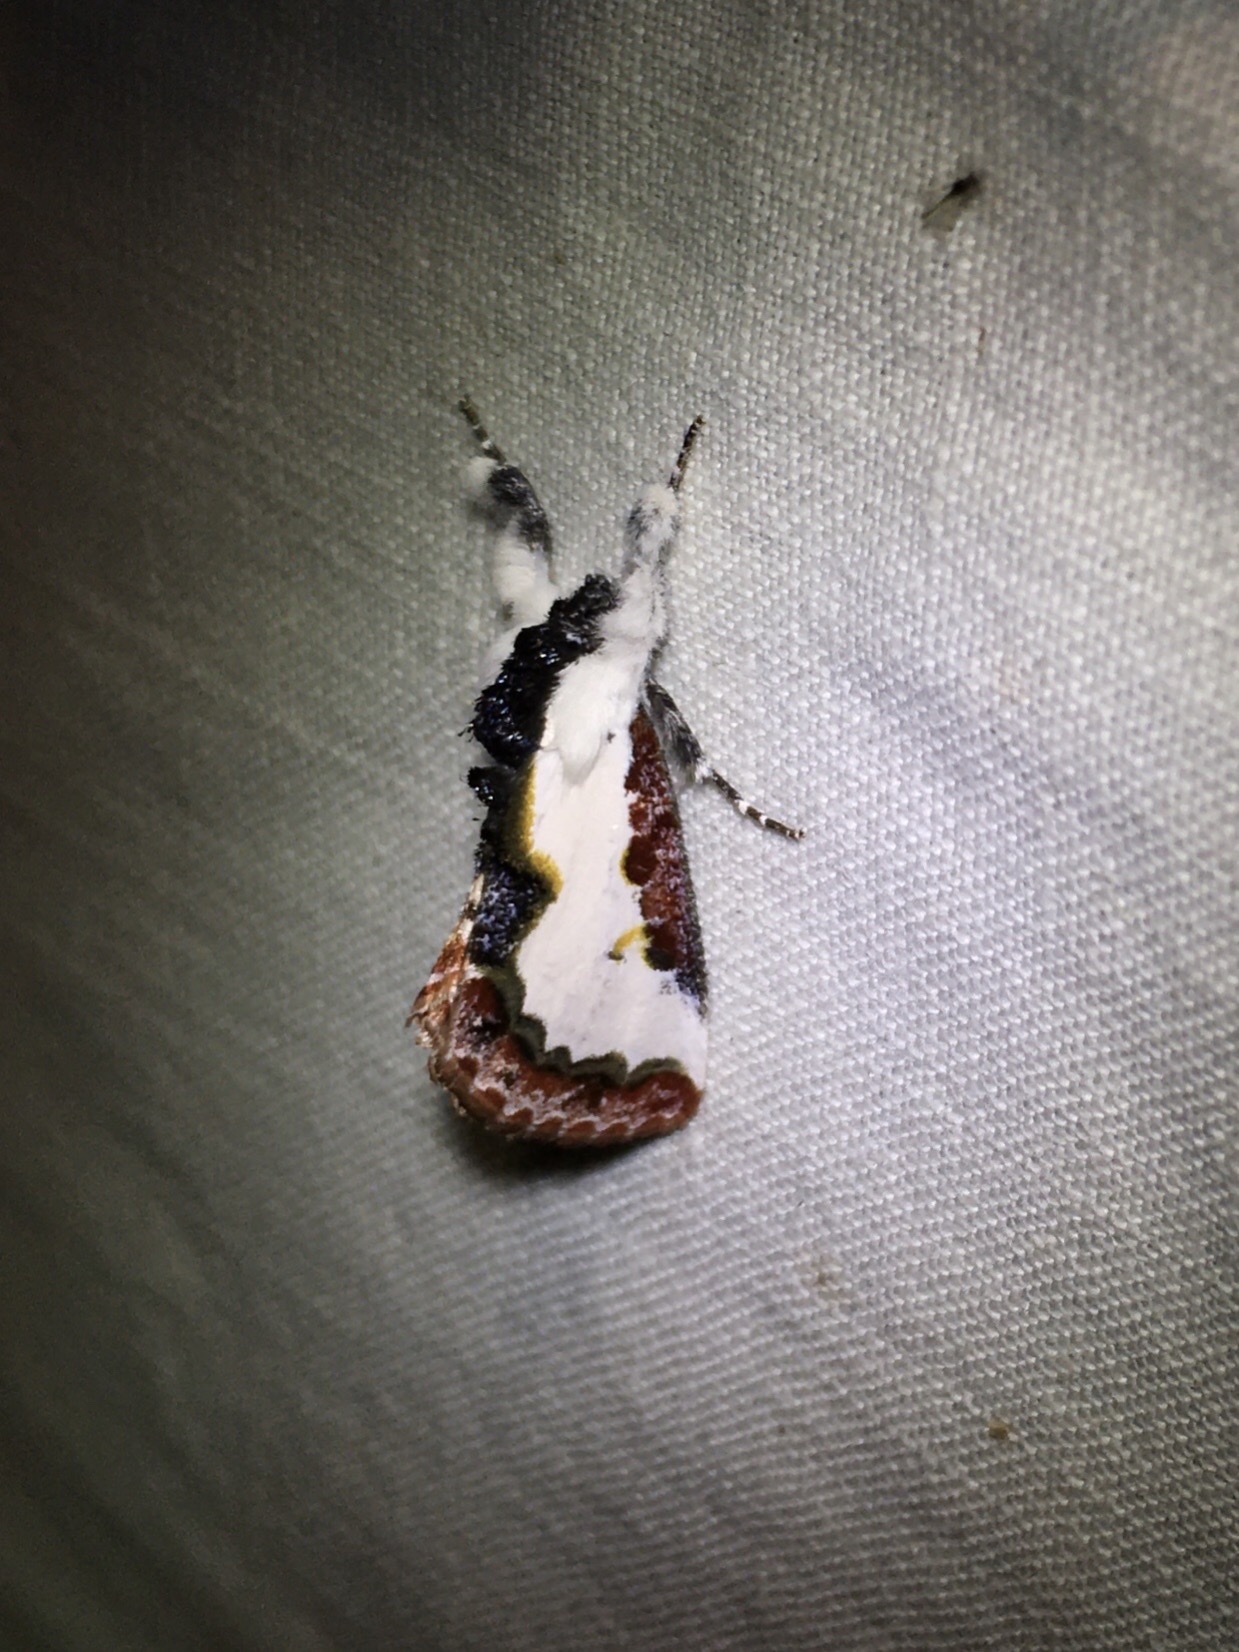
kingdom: Animalia
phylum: Arthropoda
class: Insecta
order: Lepidoptera
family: Noctuidae
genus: Eudryas
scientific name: Eudryas unio
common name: Pearly wood-nymph
